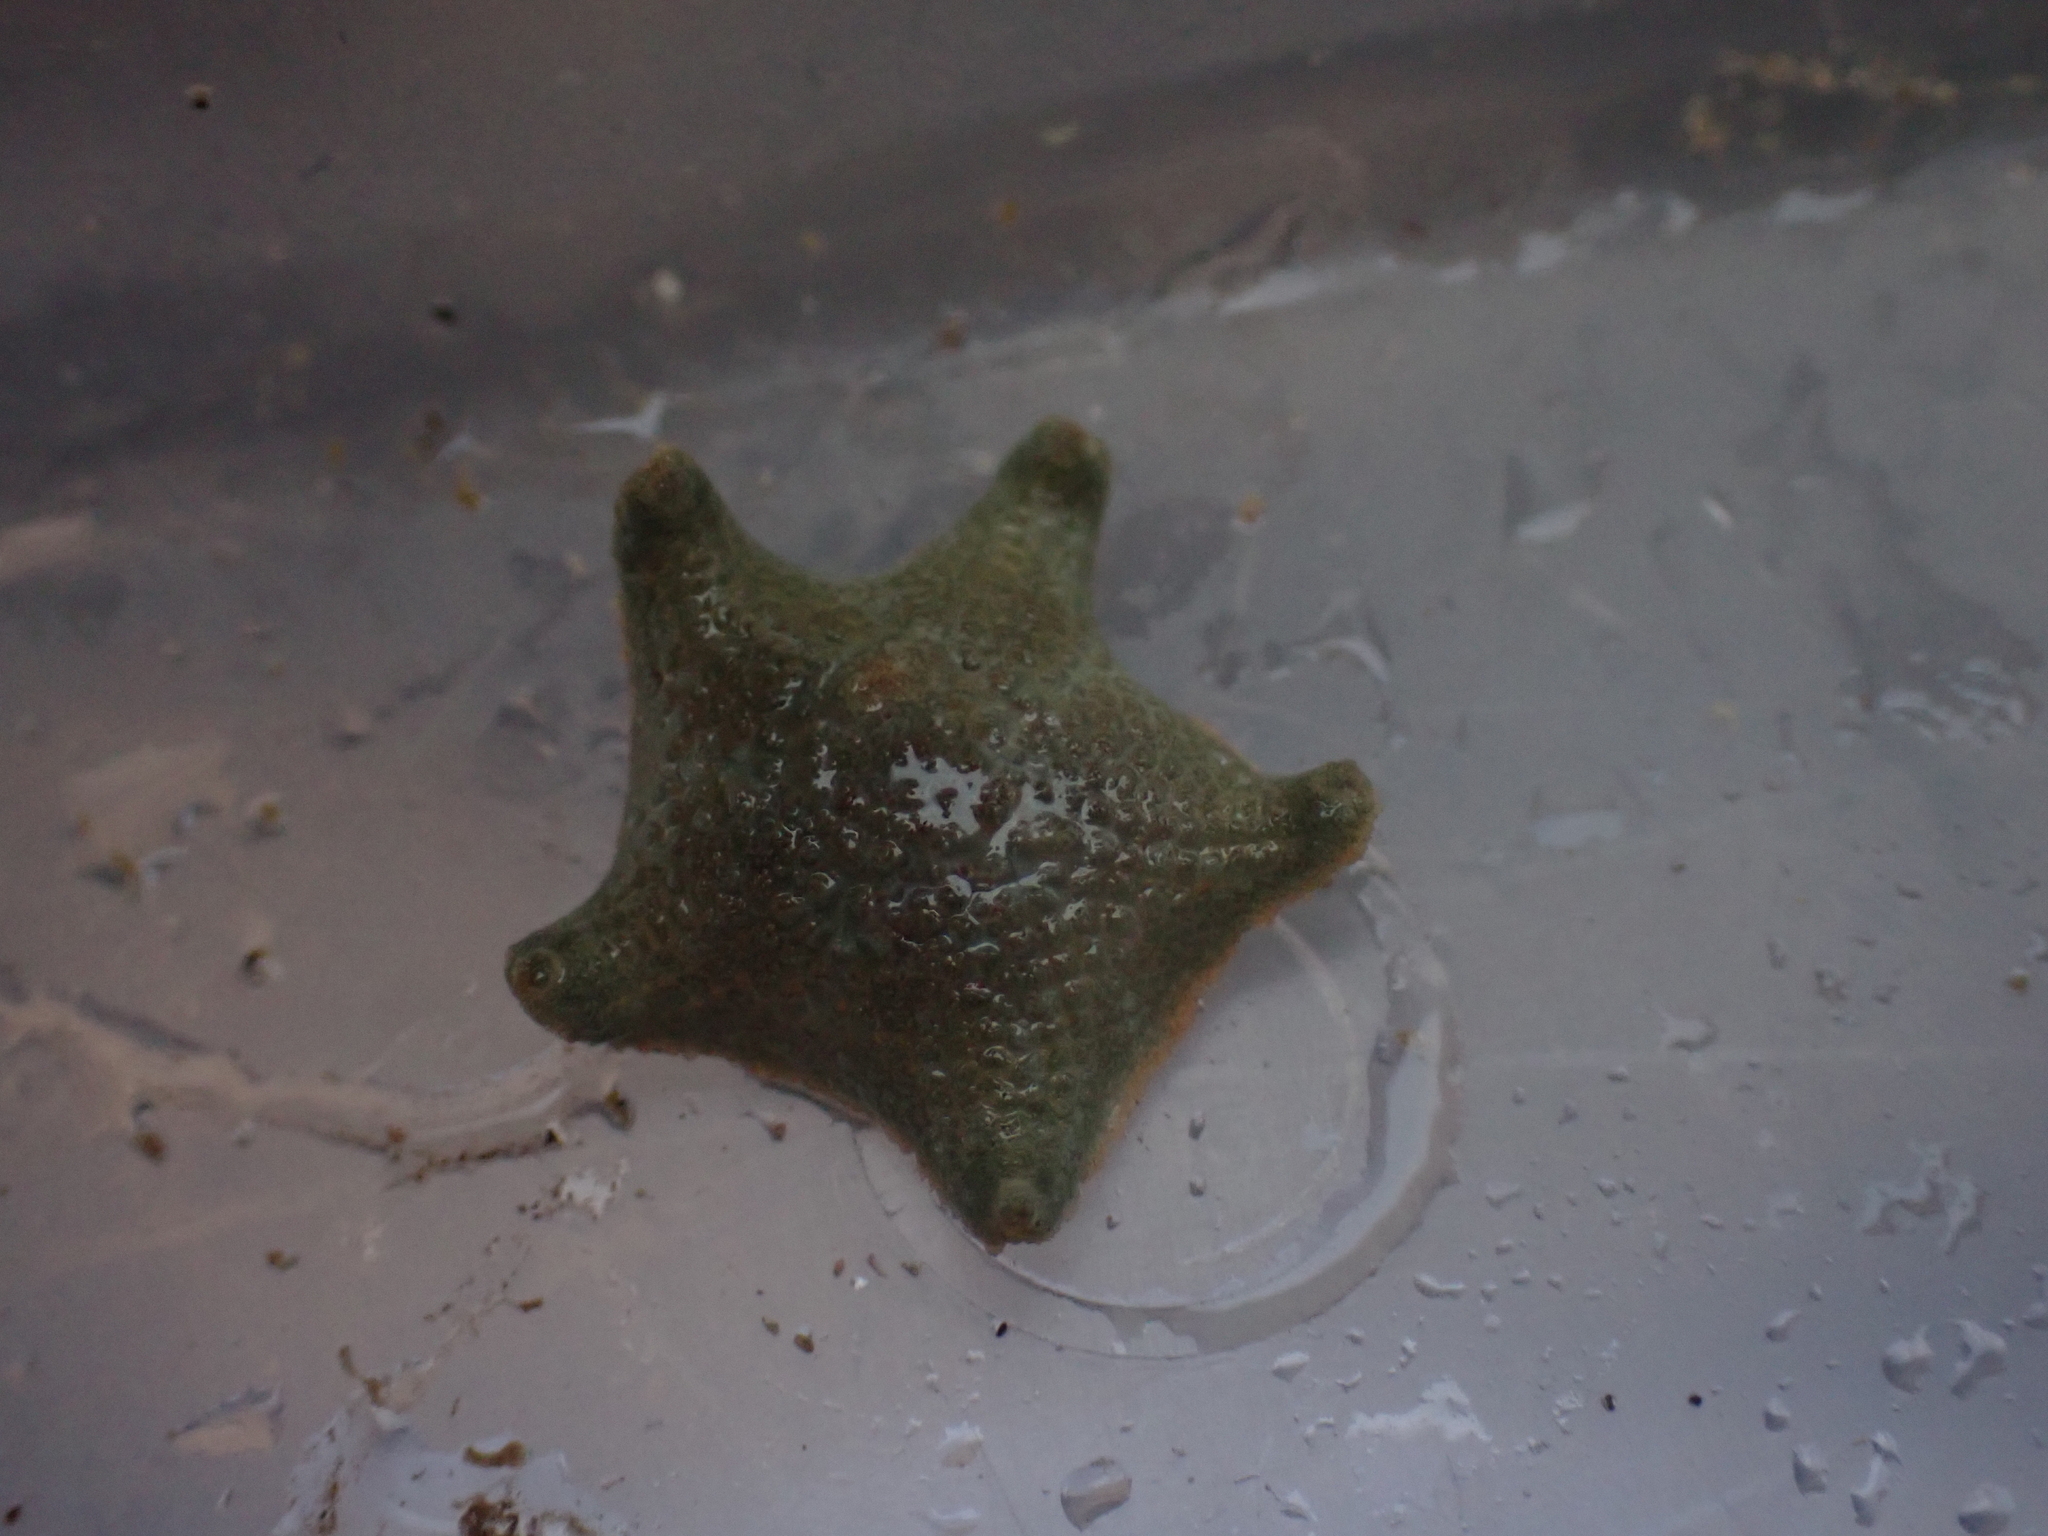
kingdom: Animalia
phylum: Echinodermata
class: Asteroidea
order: Valvatida
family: Asterinidae
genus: Asterina
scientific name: Asterina gibbosa
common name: Cushion star
